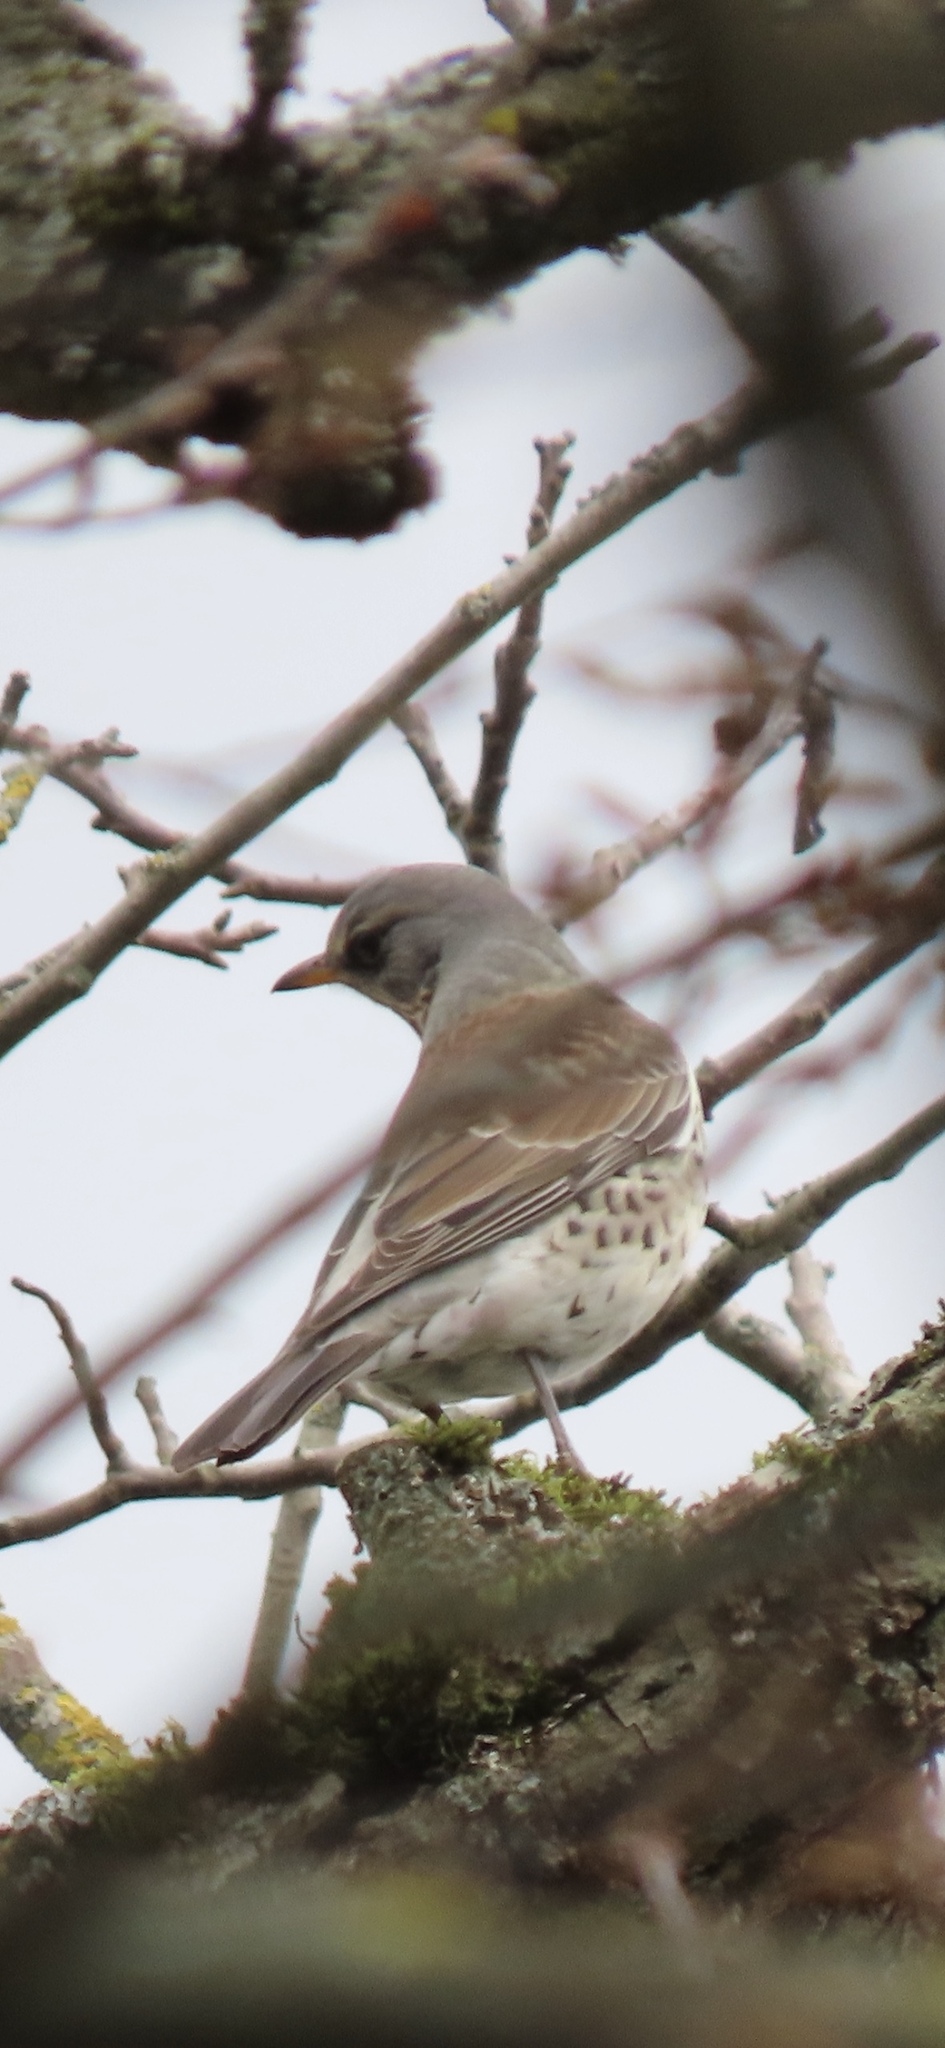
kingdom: Animalia
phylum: Chordata
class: Aves
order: Passeriformes
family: Turdidae
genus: Turdus
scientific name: Turdus pilaris
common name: Fieldfare
